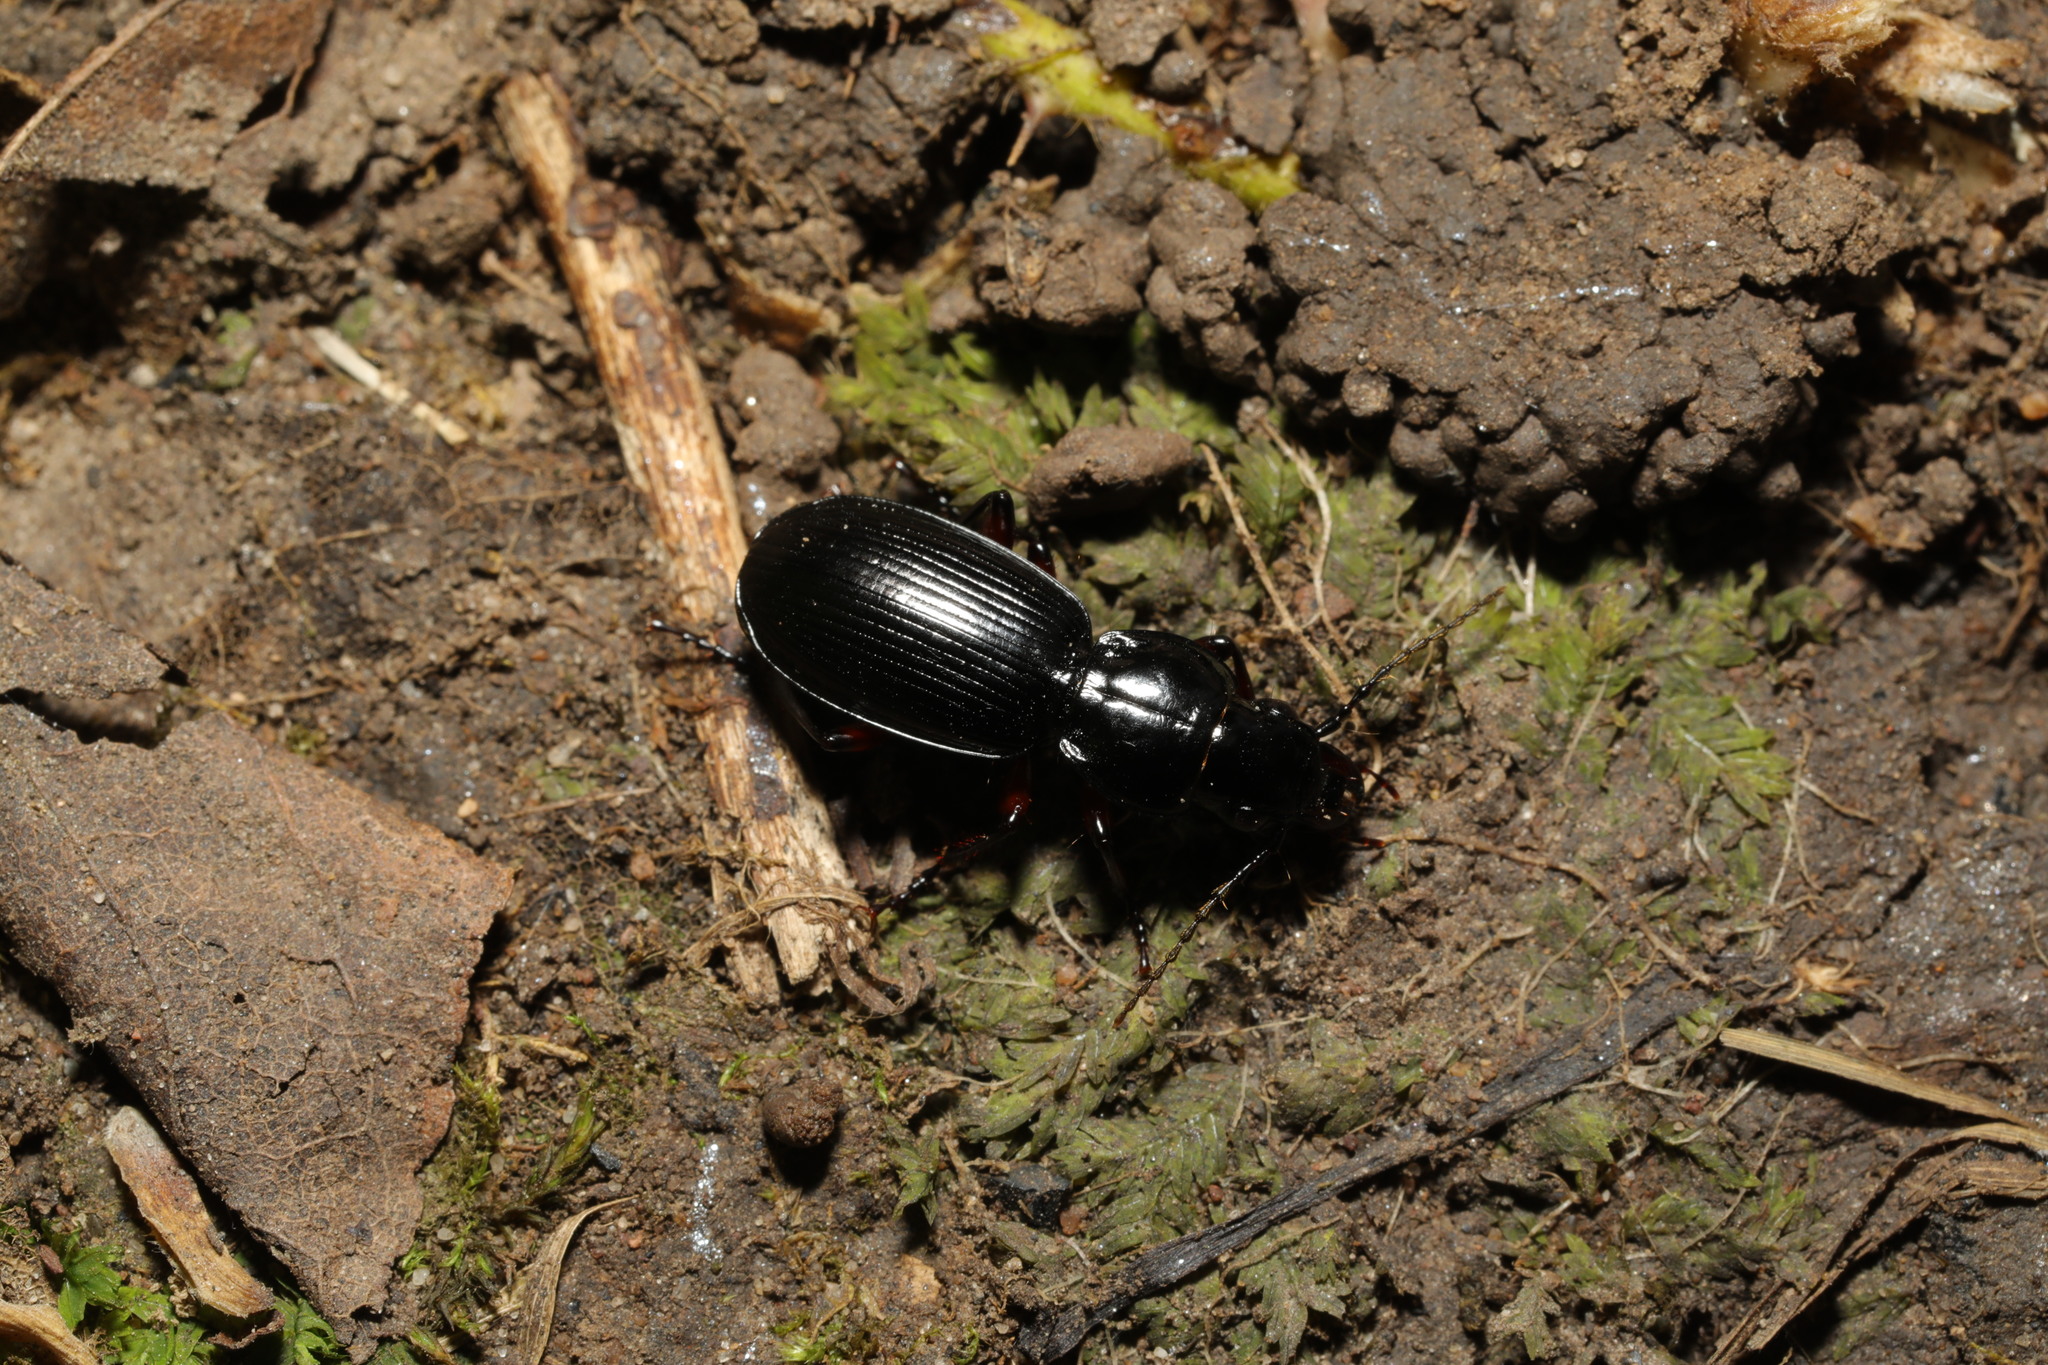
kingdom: Animalia
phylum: Arthropoda
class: Insecta
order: Coleoptera
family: Carabidae
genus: Pterostichus
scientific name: Pterostichus madidus
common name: Black clock
